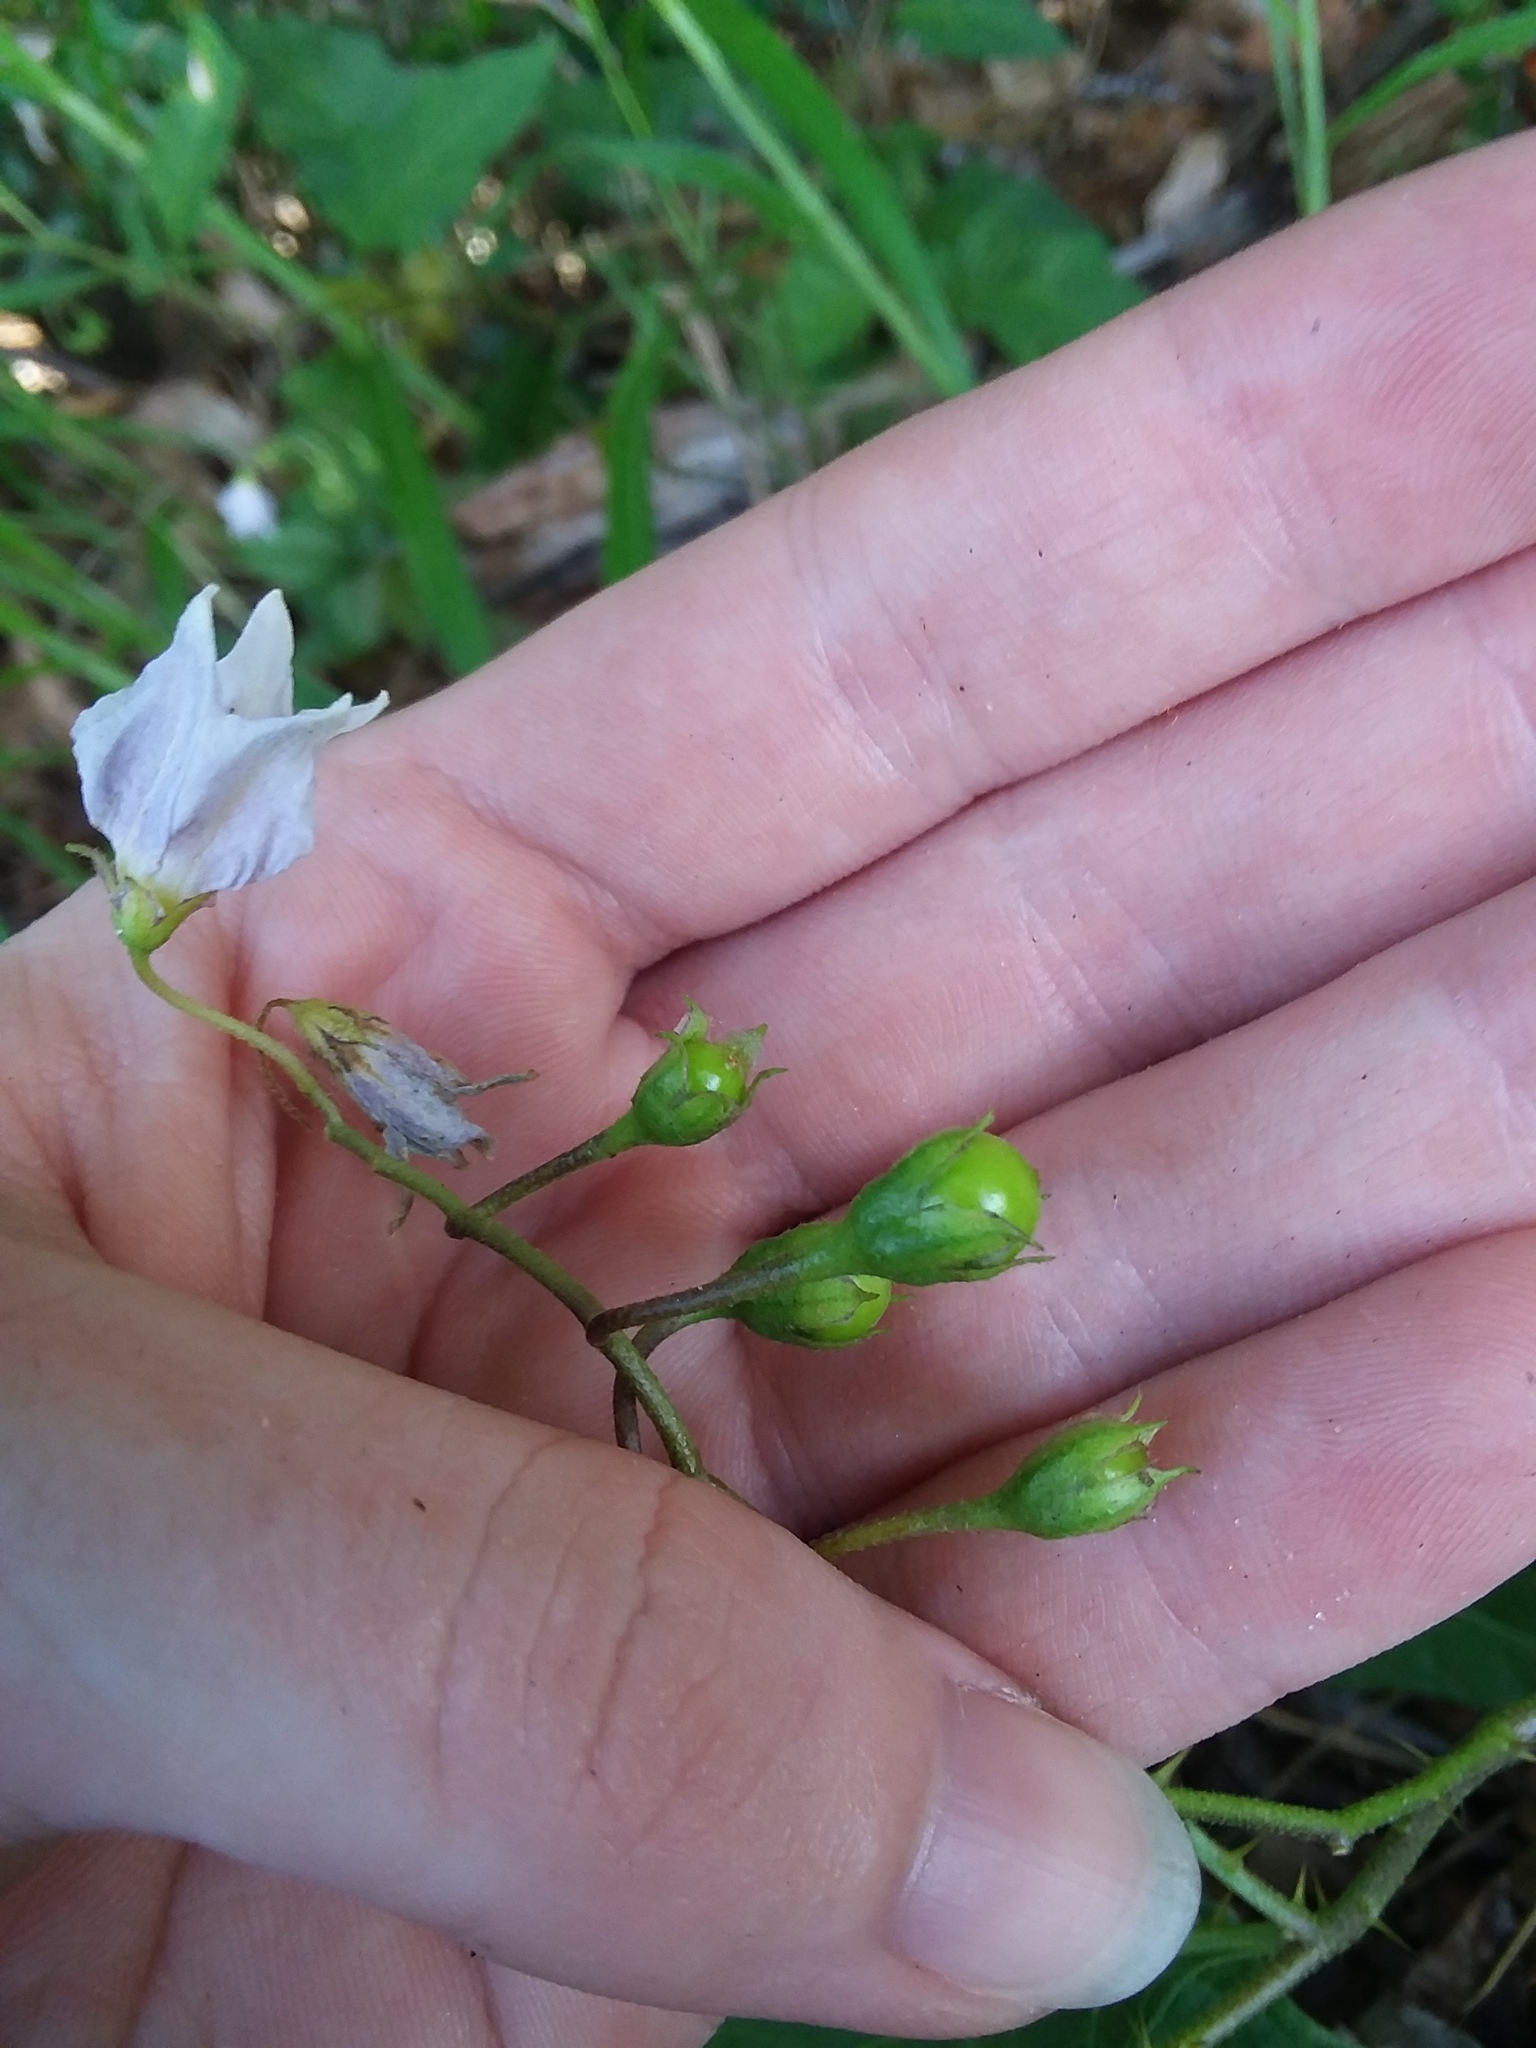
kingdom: Plantae
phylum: Tracheophyta
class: Magnoliopsida
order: Solanales
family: Solanaceae
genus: Solanum
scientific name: Solanum carolinense
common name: Horse-nettle
